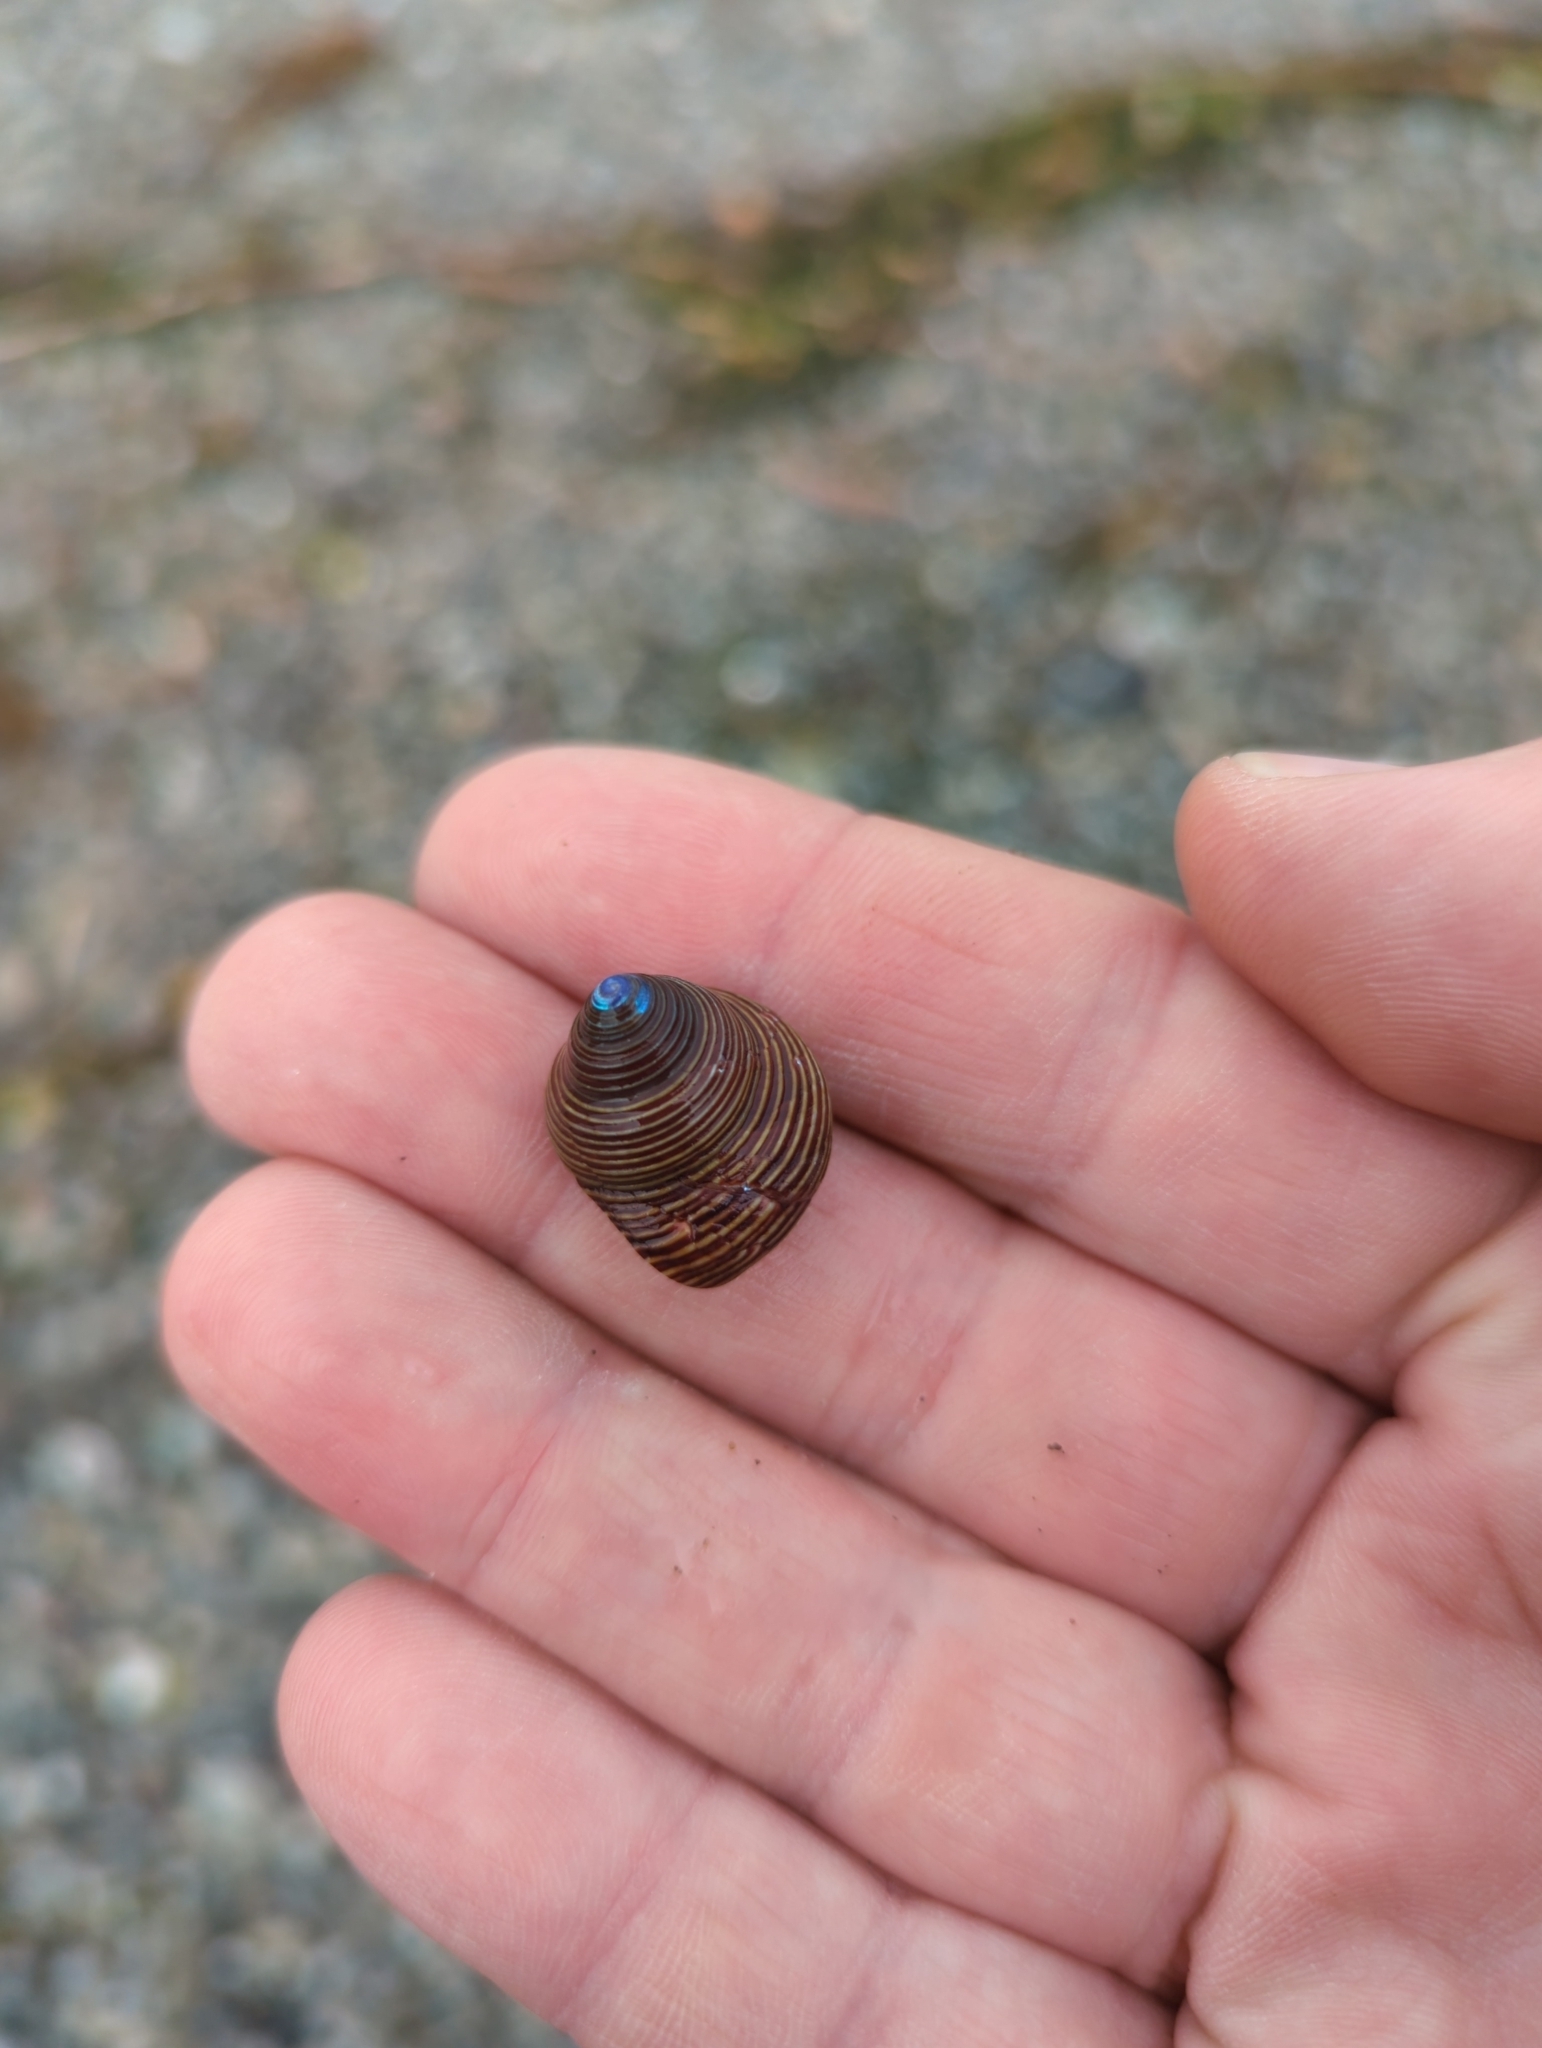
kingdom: Animalia
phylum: Mollusca
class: Gastropoda
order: Trochida
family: Calliostomatidae
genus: Calliostoma
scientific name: Calliostoma ligatum
